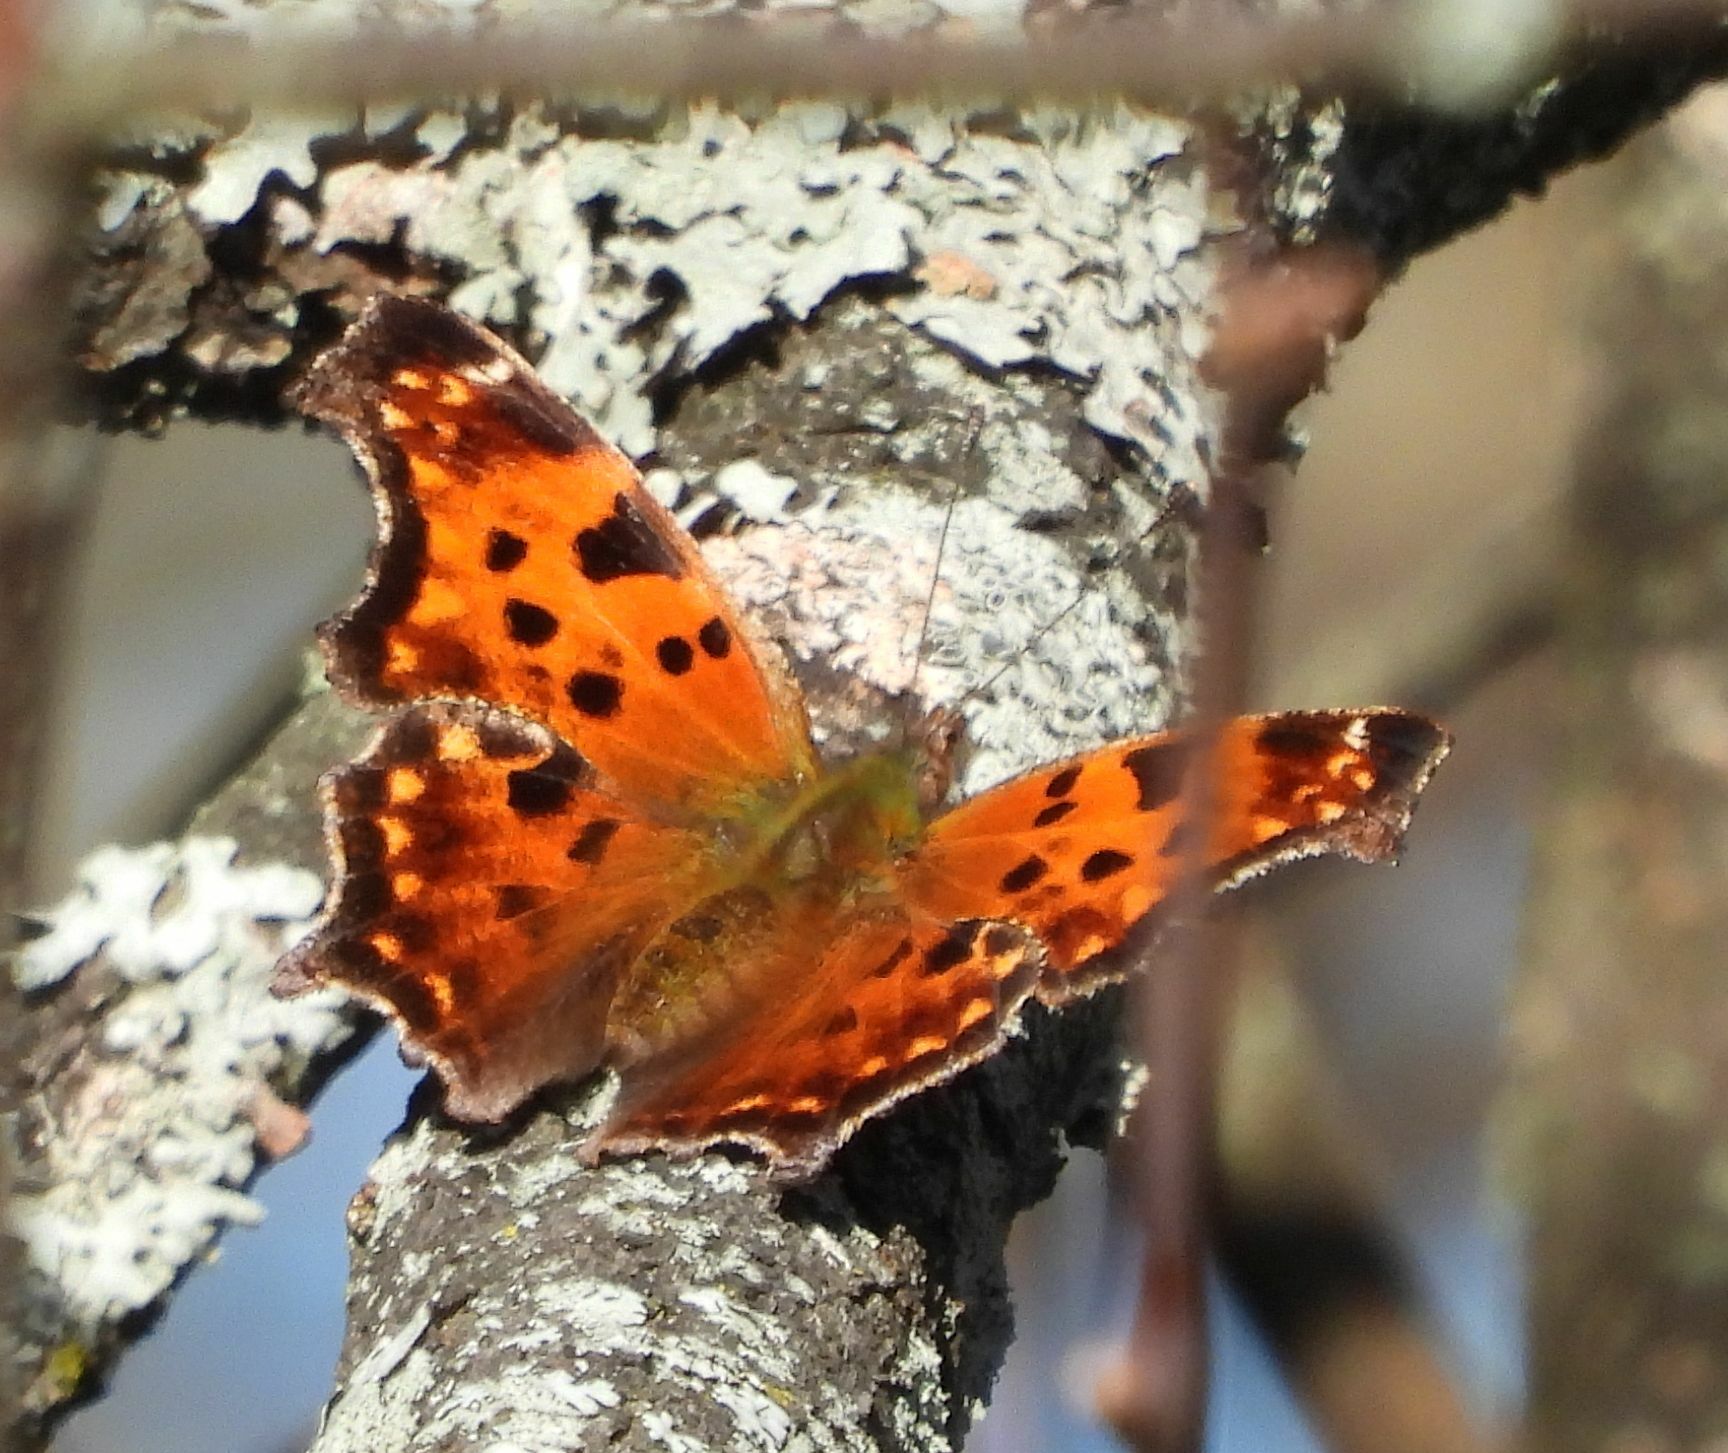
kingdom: Animalia
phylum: Arthropoda
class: Insecta
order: Lepidoptera
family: Nymphalidae
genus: Polygonia
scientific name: Polygonia comma
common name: Eastern comma
